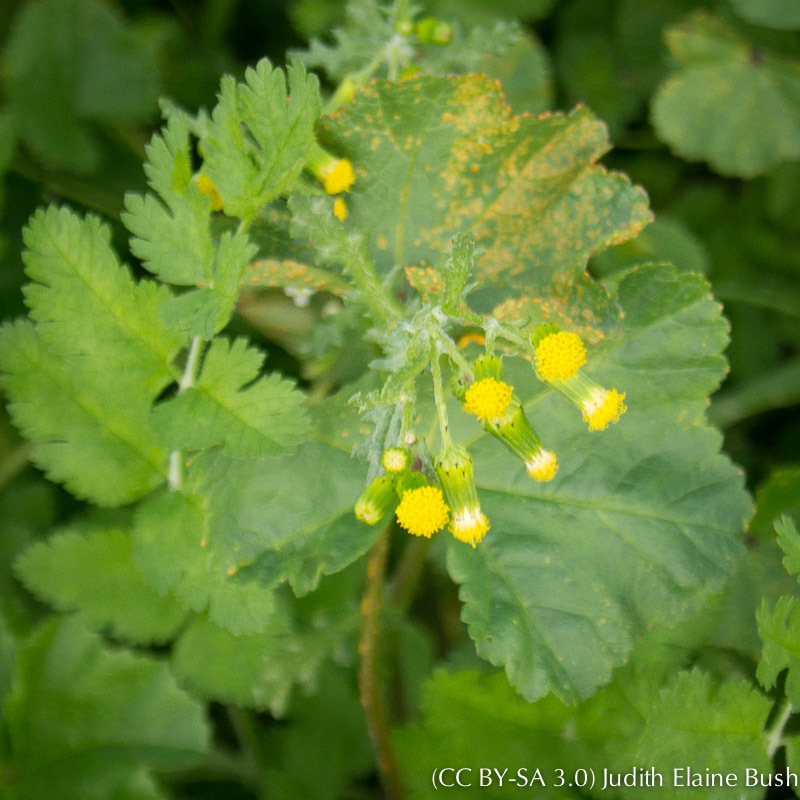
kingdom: Plantae
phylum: Tracheophyta
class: Magnoliopsida
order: Asterales
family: Asteraceae
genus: Senecio
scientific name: Senecio vulgaris
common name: Old-man-in-the-spring
